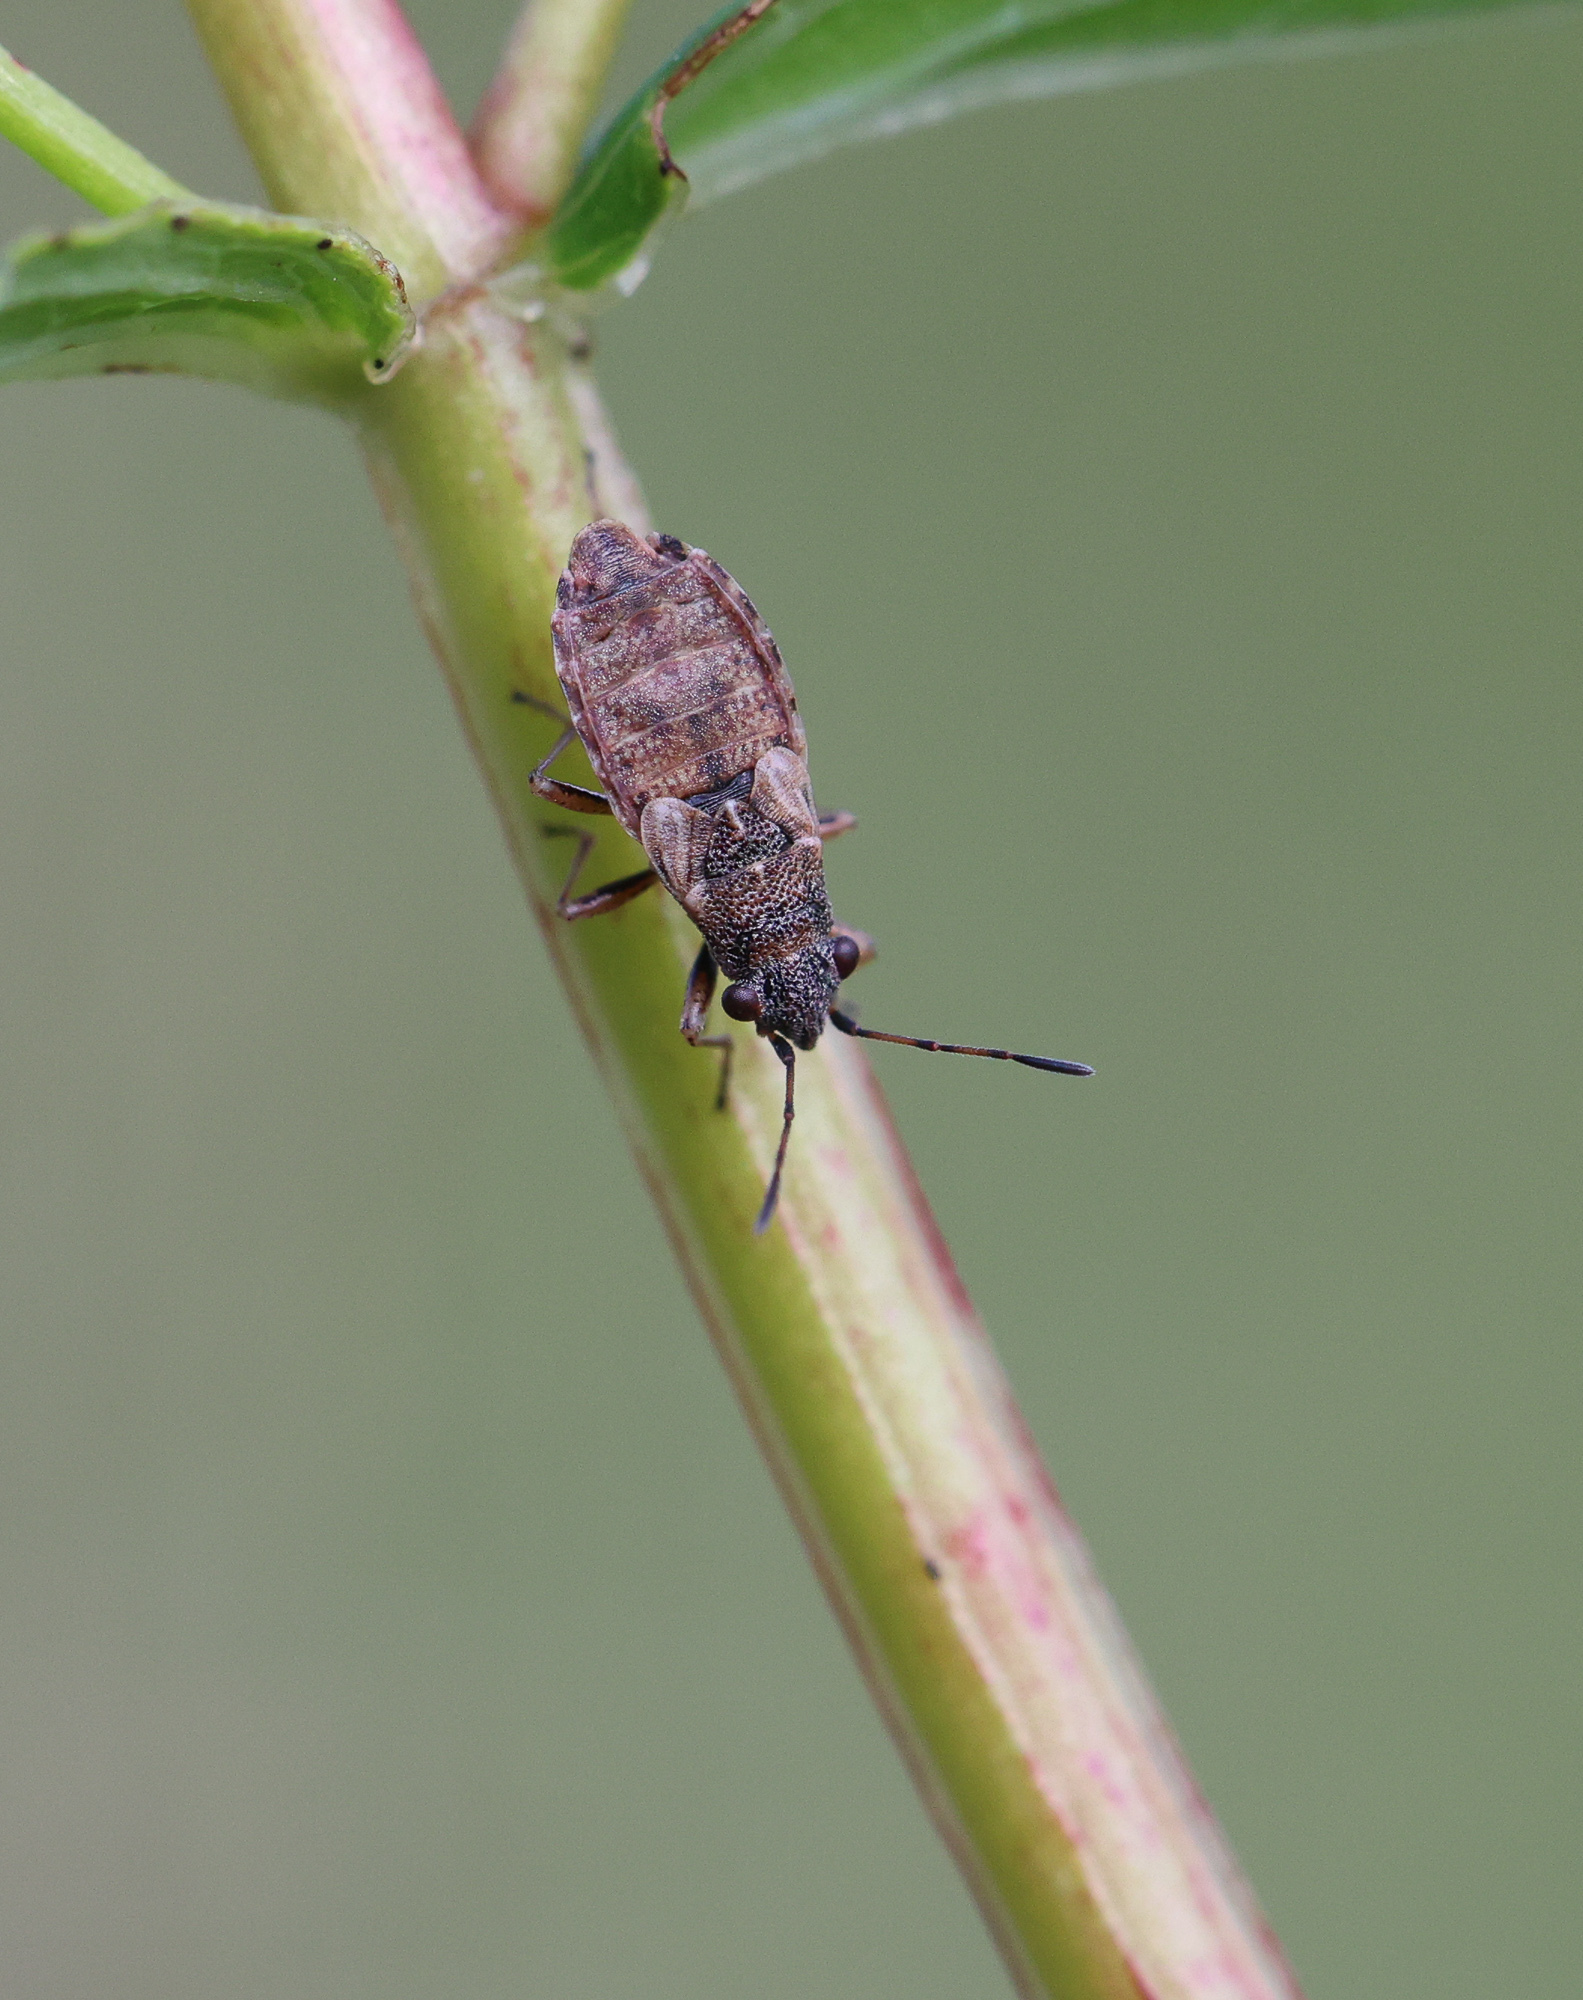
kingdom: Animalia
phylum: Arthropoda
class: Insecta
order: Hemiptera
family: Lygaeidae
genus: Nithecus
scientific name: Nithecus jacobaeae
